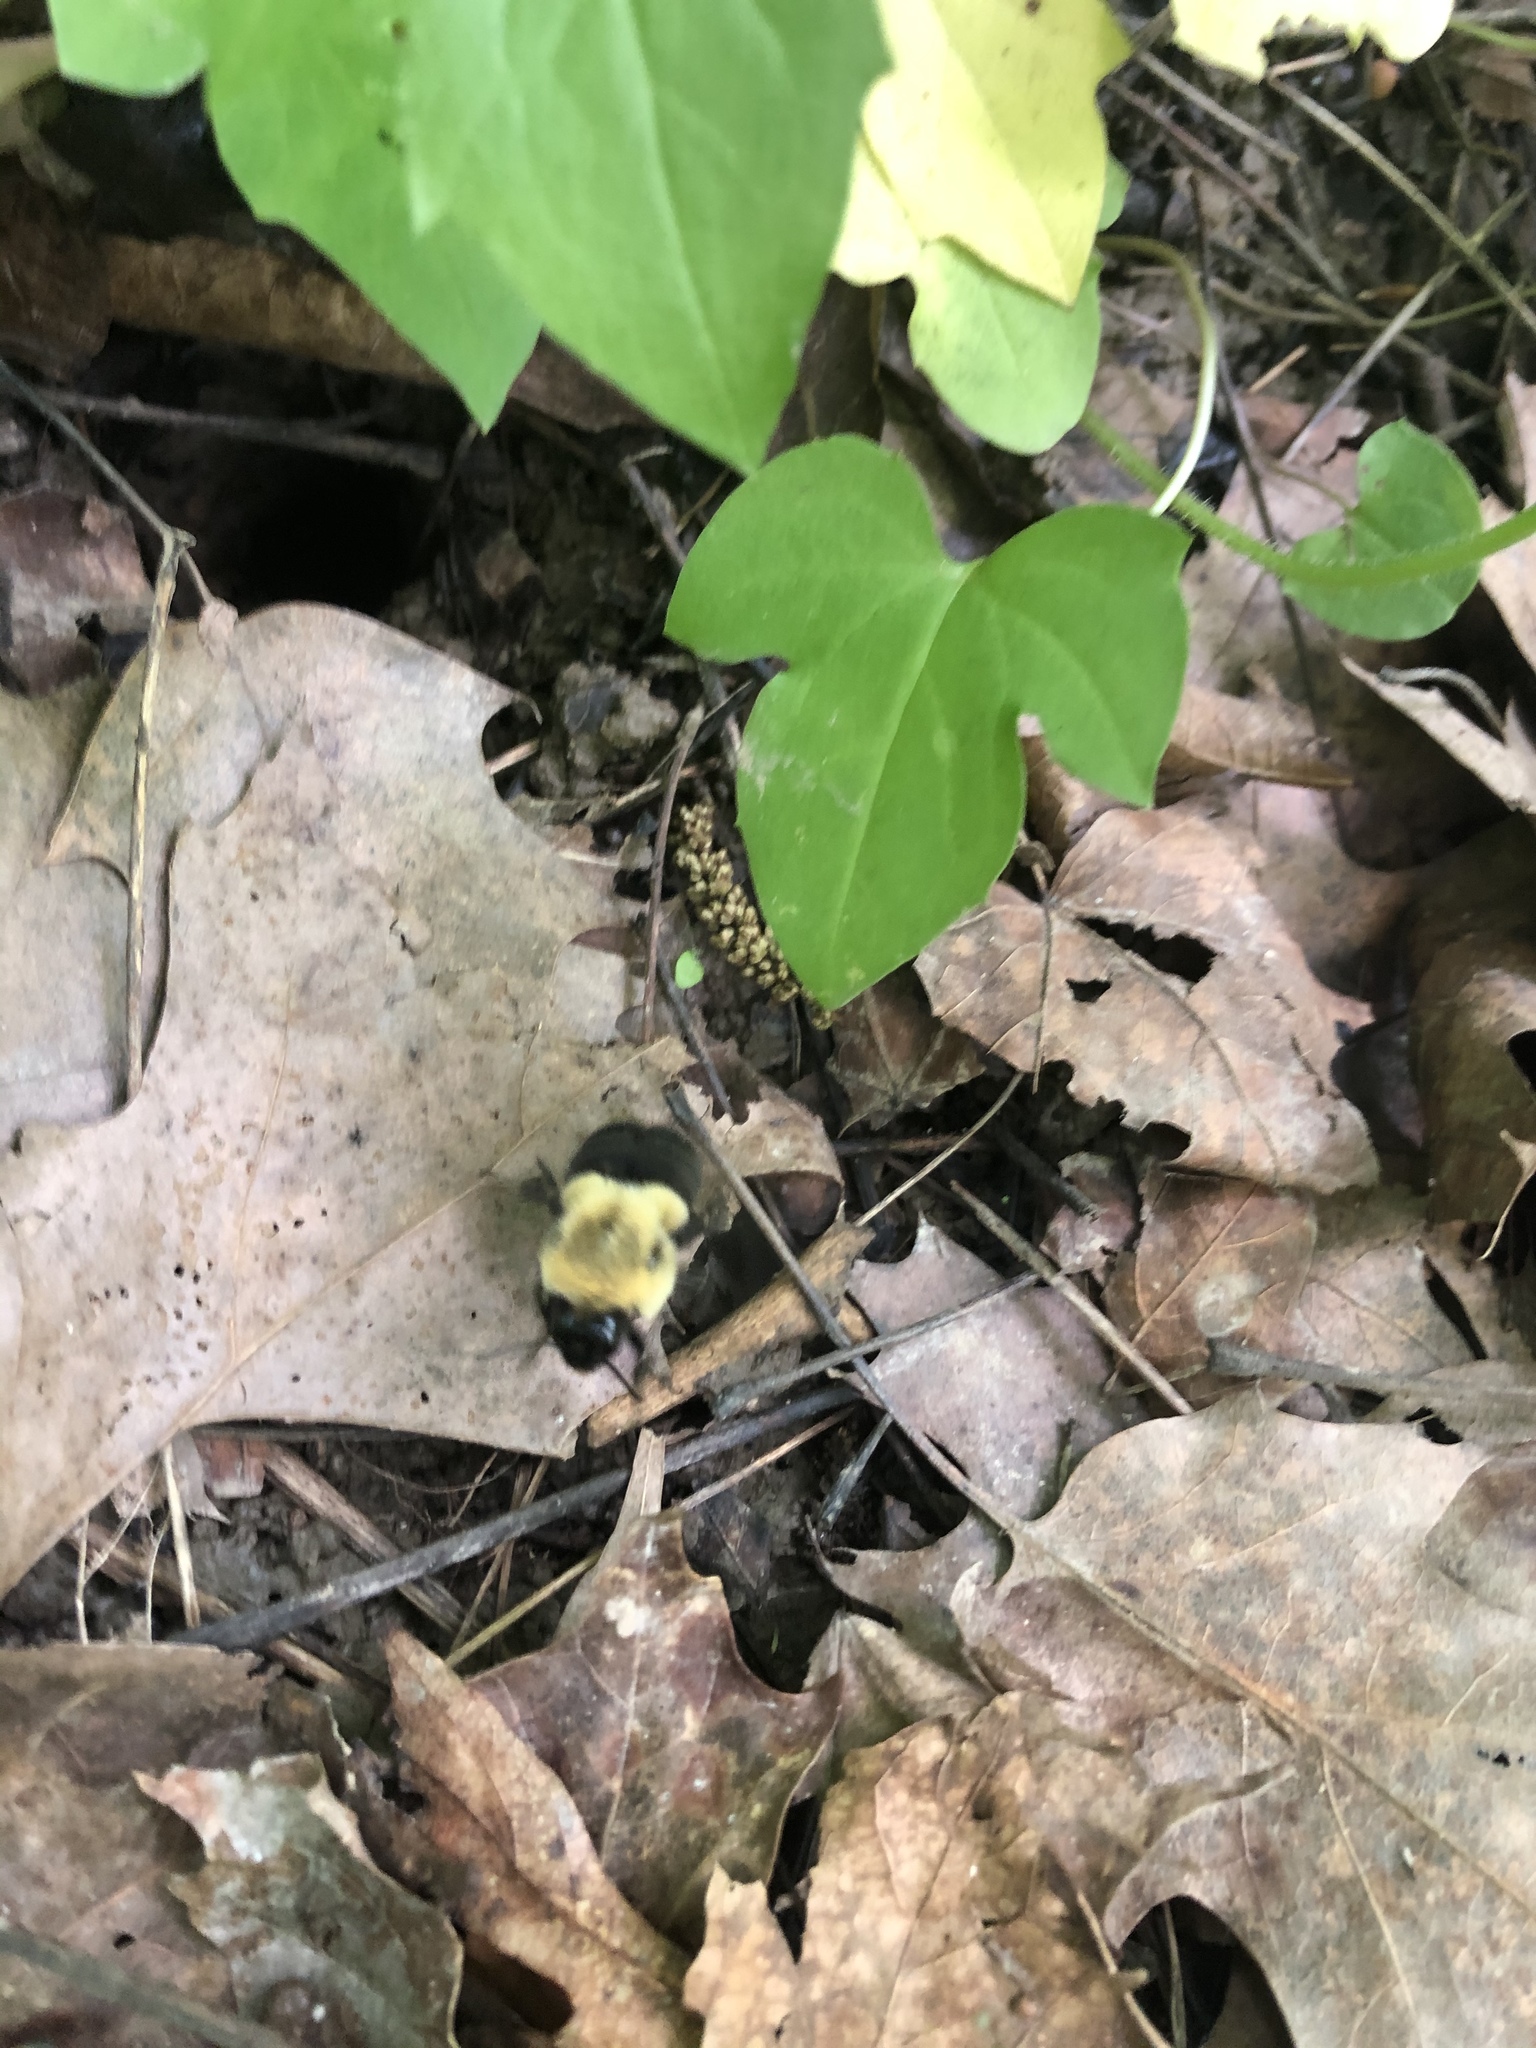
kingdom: Animalia
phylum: Arthropoda
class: Insecta
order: Hymenoptera
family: Apidae
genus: Bombus
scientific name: Bombus impatiens
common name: Common eastern bumble bee
